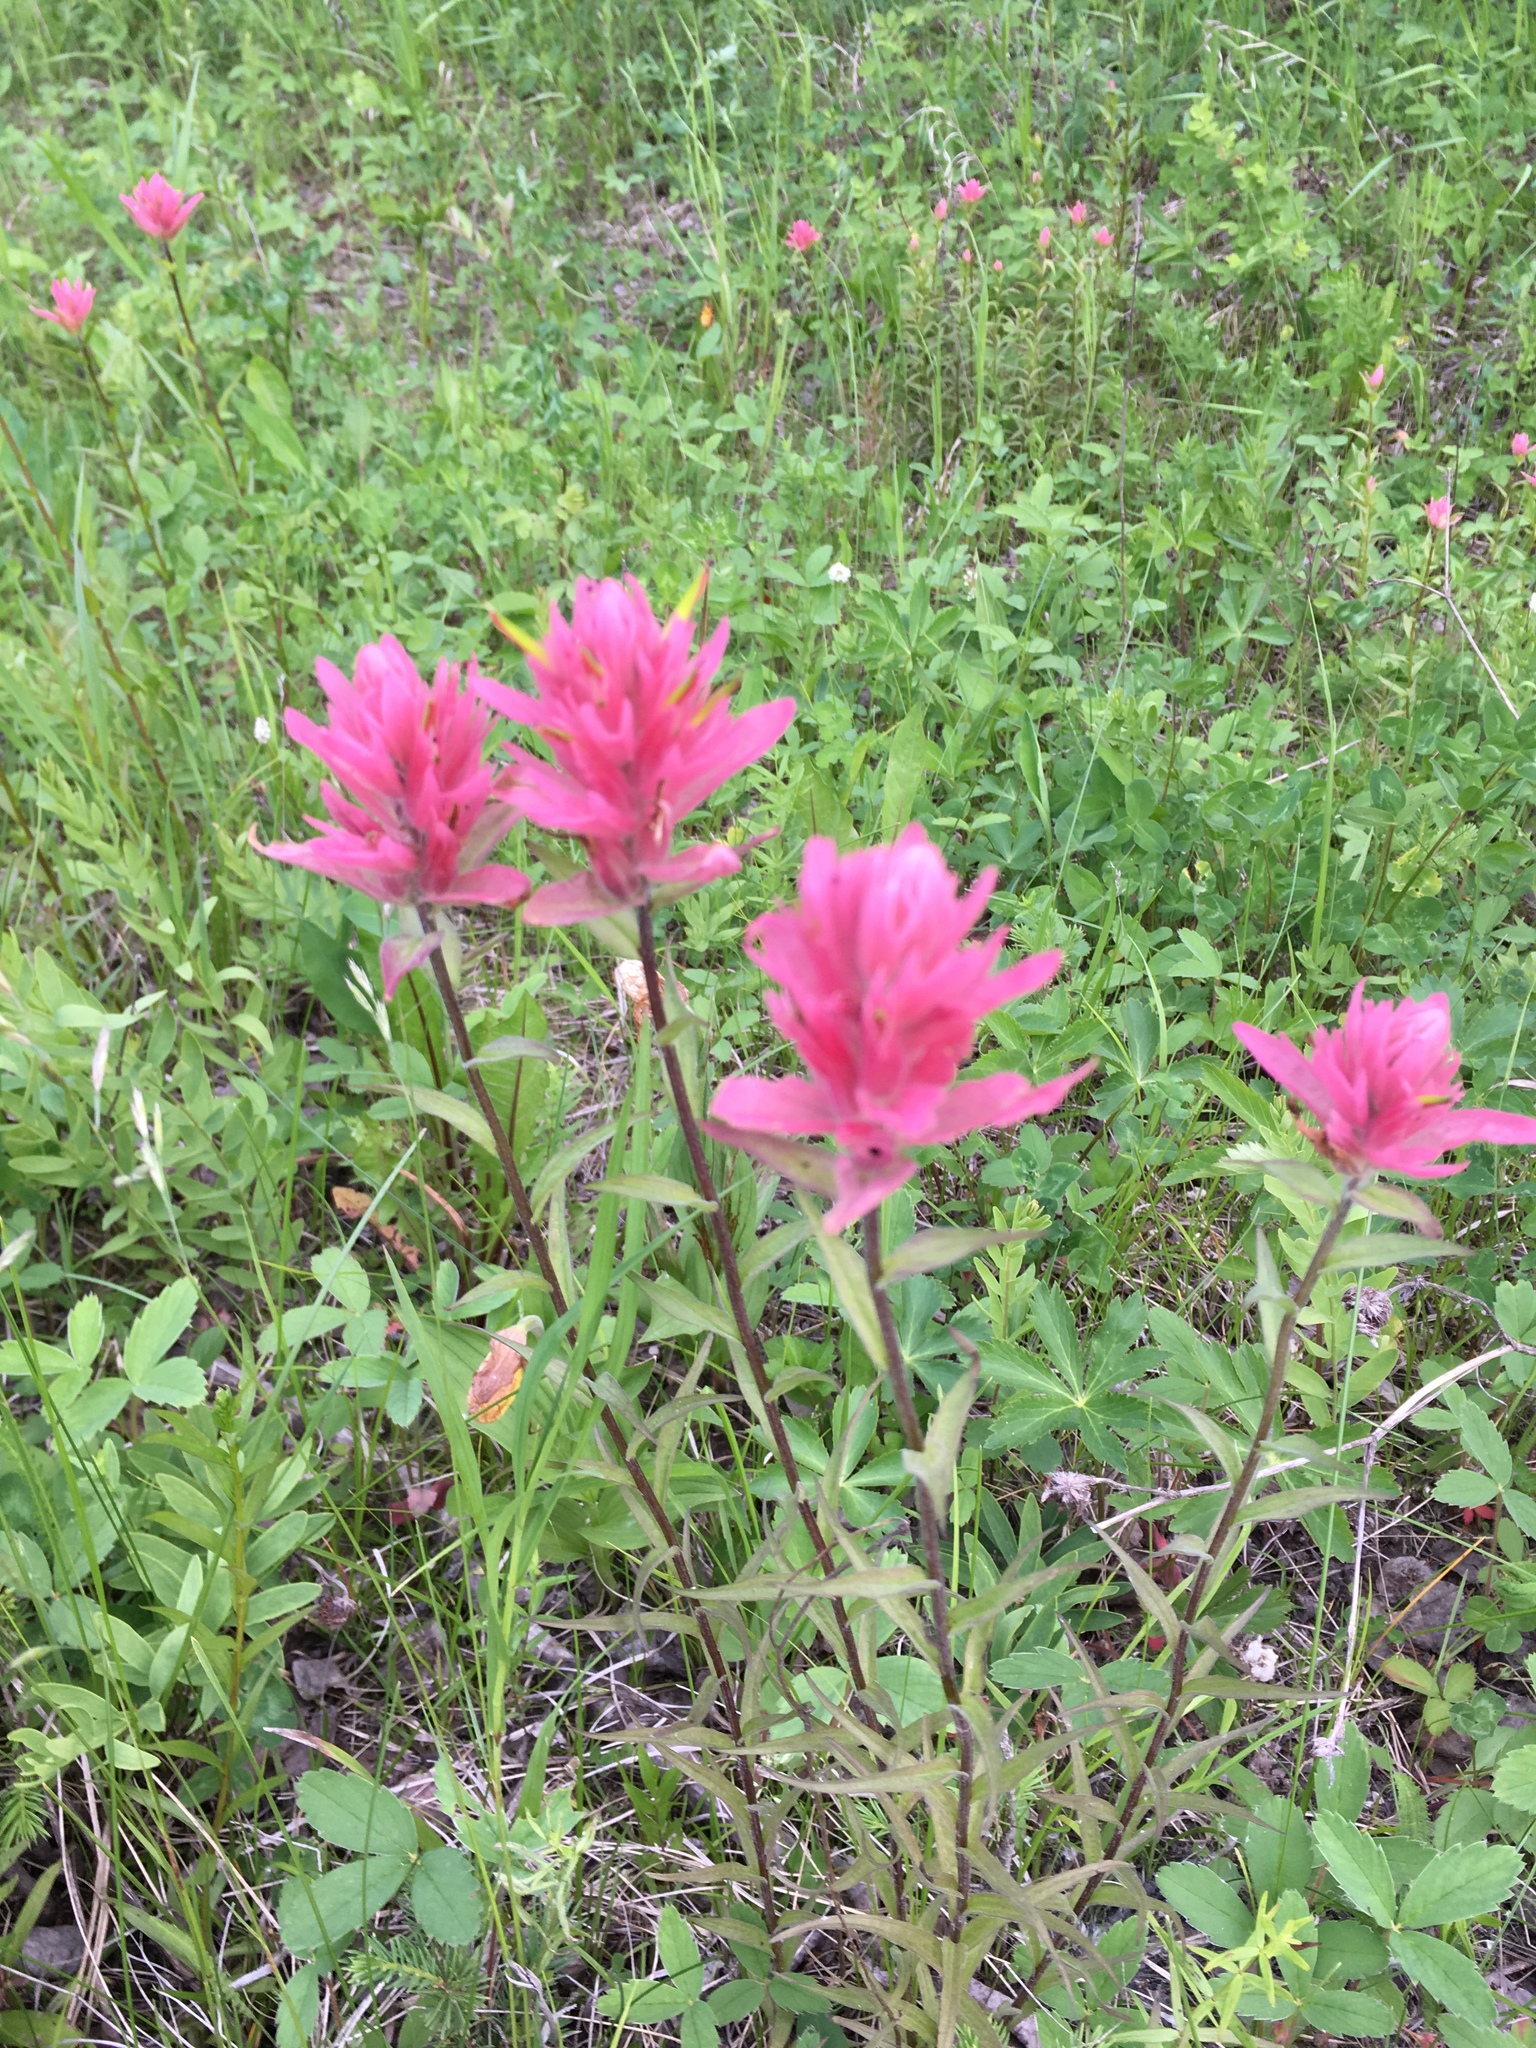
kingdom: Plantae
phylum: Tracheophyta
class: Magnoliopsida
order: Lamiales
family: Orobanchaceae
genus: Castilleja
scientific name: Castilleja miniata
